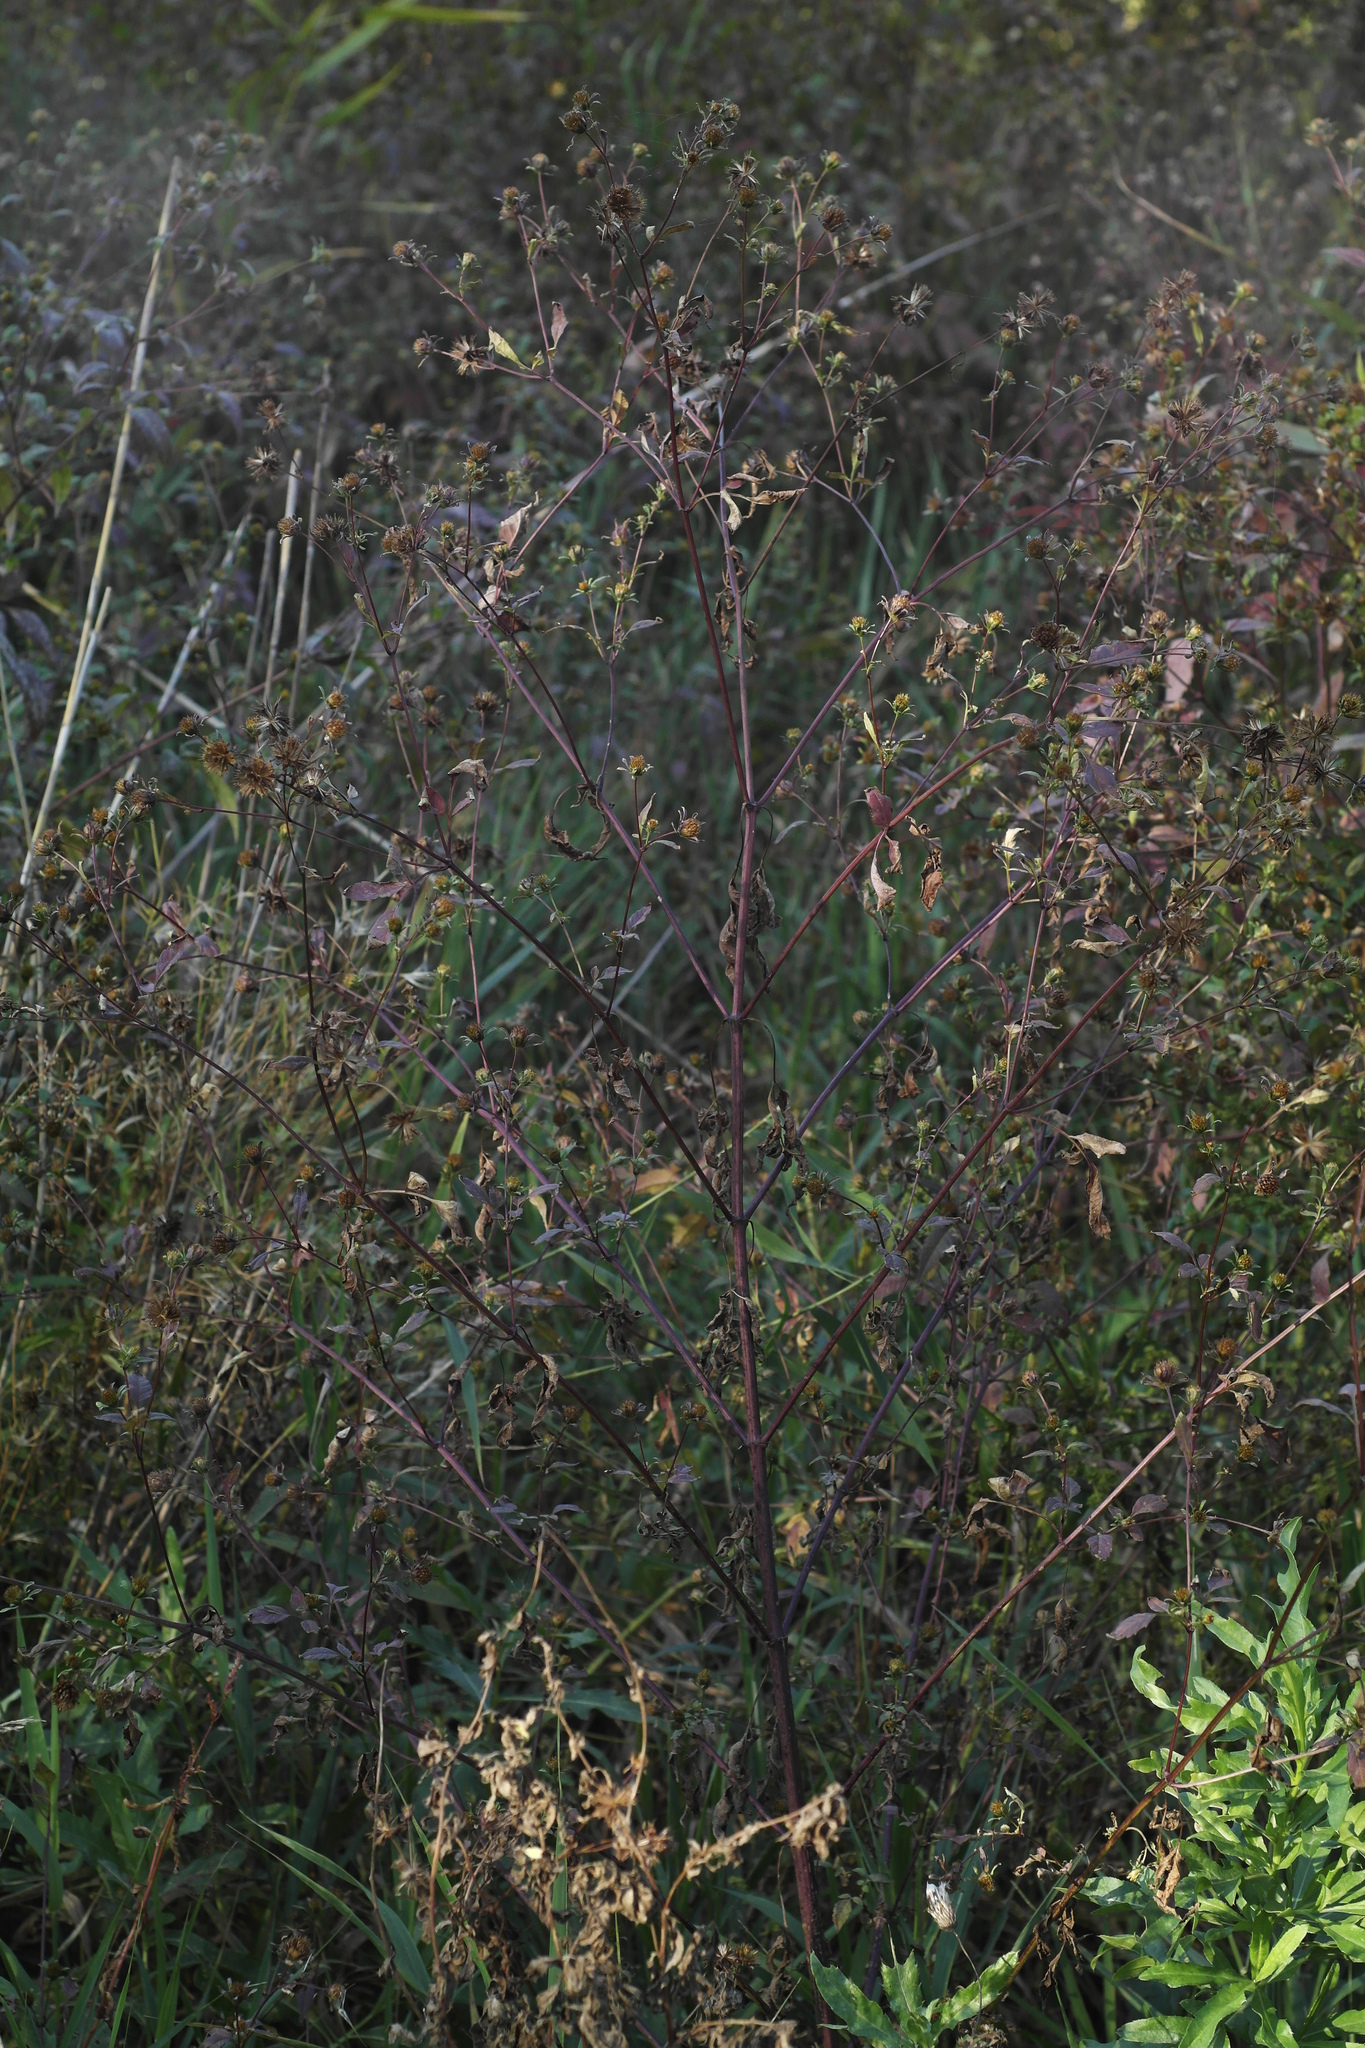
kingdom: Plantae
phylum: Tracheophyta
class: Magnoliopsida
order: Asterales
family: Asteraceae
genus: Bidens
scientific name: Bidens frondosa
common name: Beggarticks
